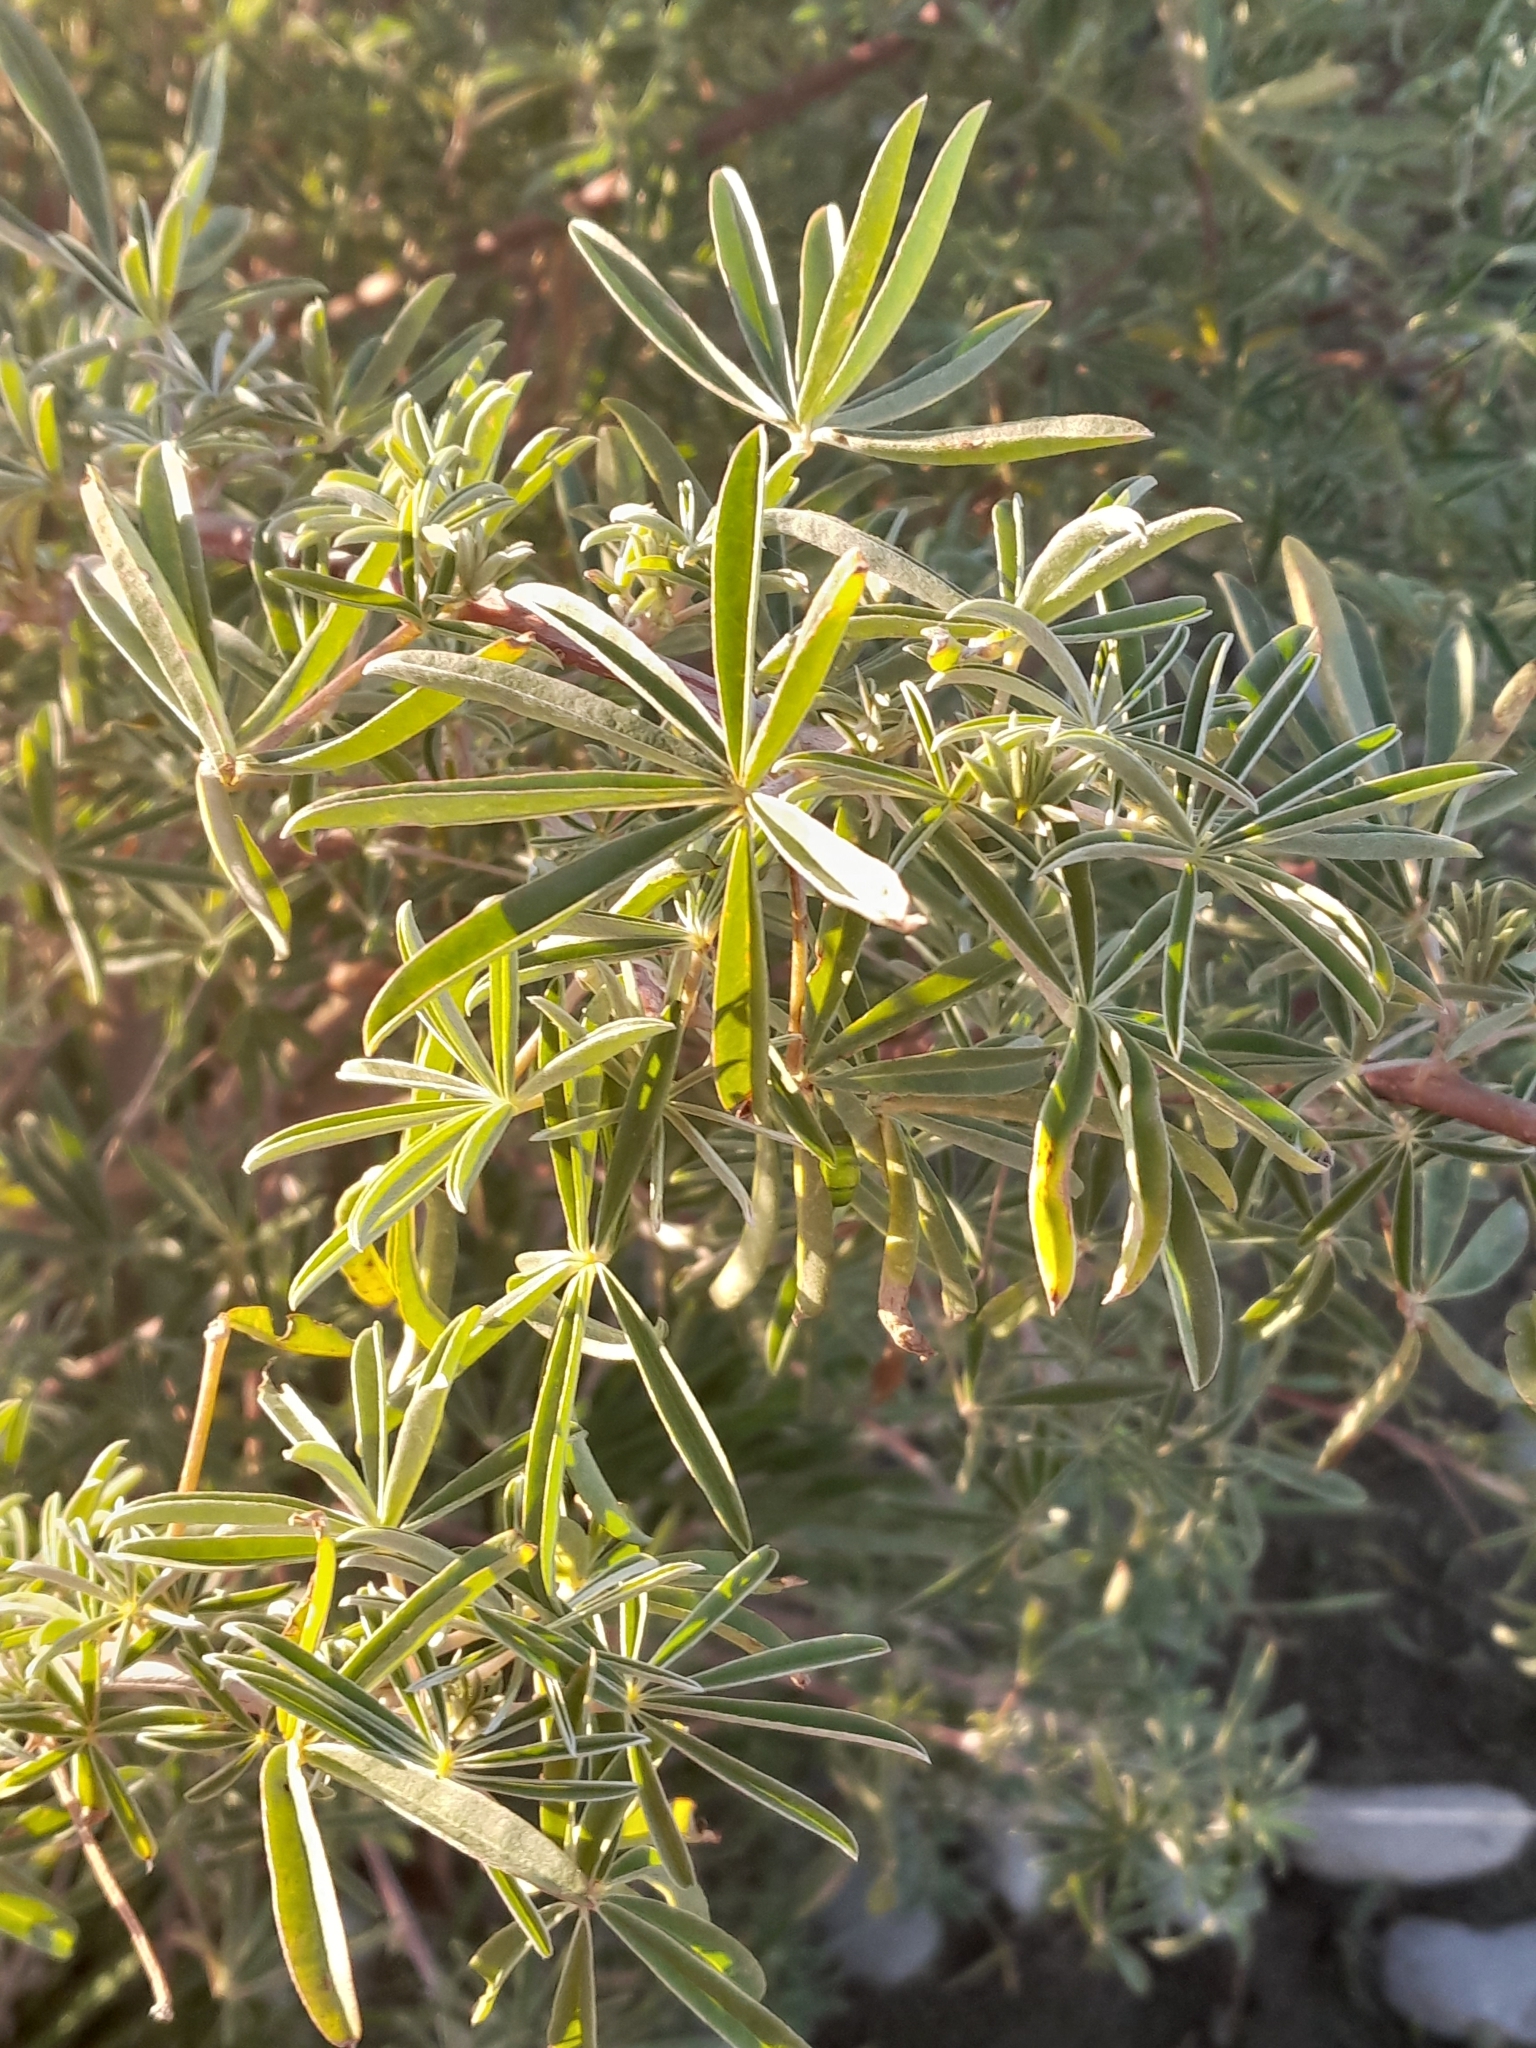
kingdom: Plantae
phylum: Tracheophyta
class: Magnoliopsida
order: Fabales
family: Fabaceae
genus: Lupinus
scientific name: Lupinus arboreus
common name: Yellow bush lupine
